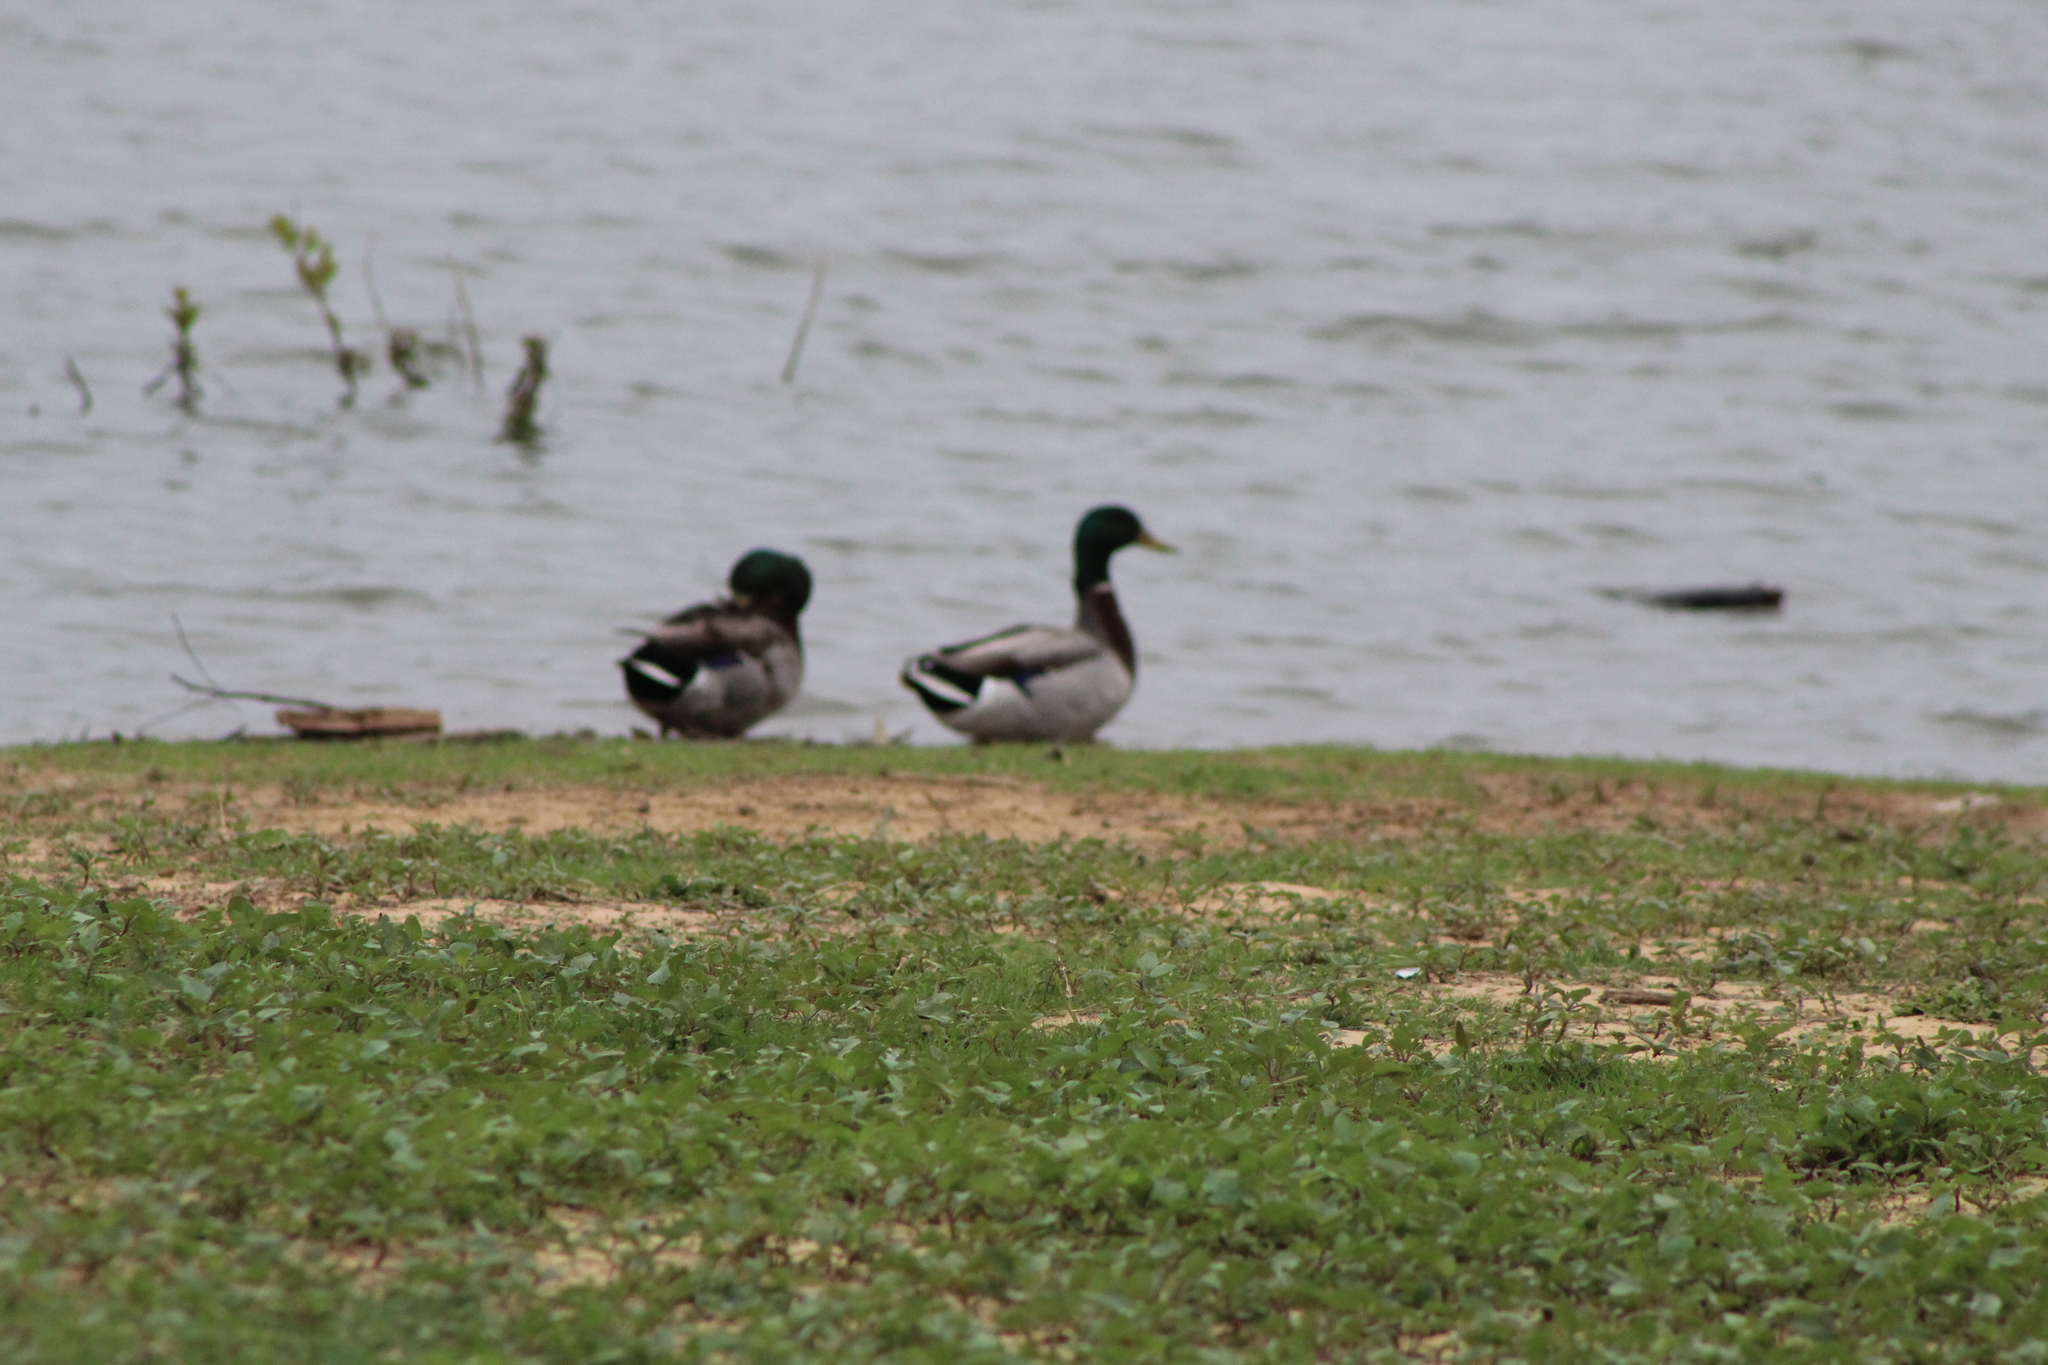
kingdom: Animalia
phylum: Chordata
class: Aves
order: Anseriformes
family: Anatidae
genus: Anas
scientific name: Anas platyrhynchos
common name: Mallard
